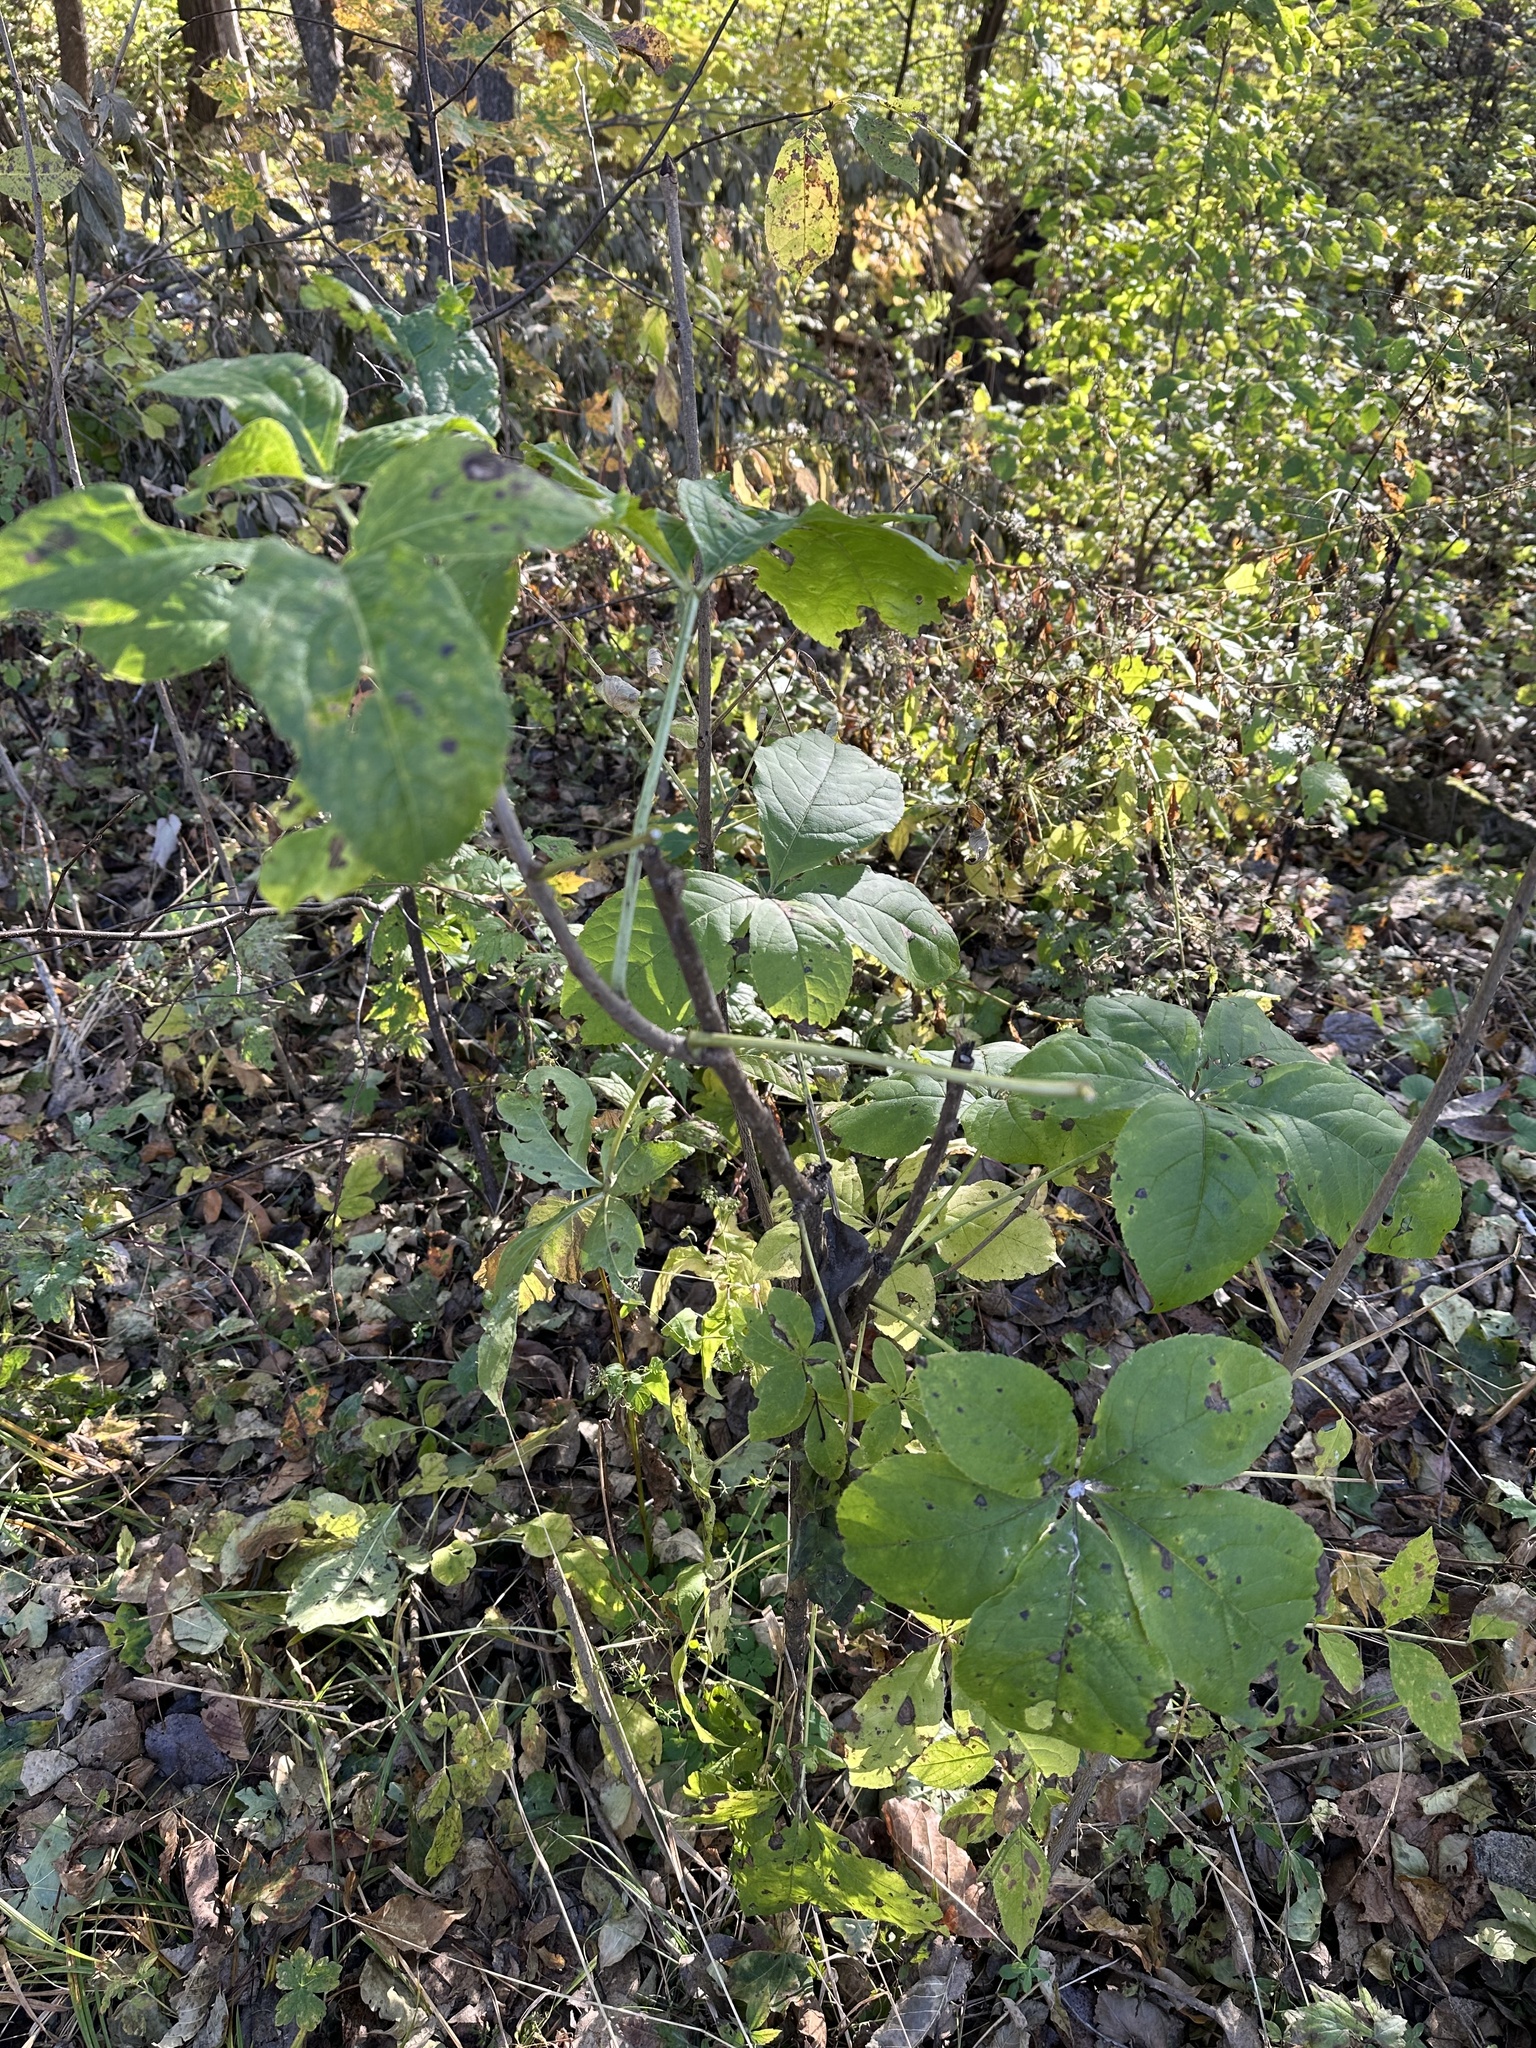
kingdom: Plantae
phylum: Tracheophyta
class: Magnoliopsida
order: Apiales
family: Araliaceae
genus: Eleutherococcus
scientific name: Eleutherococcus sessiliflorus
